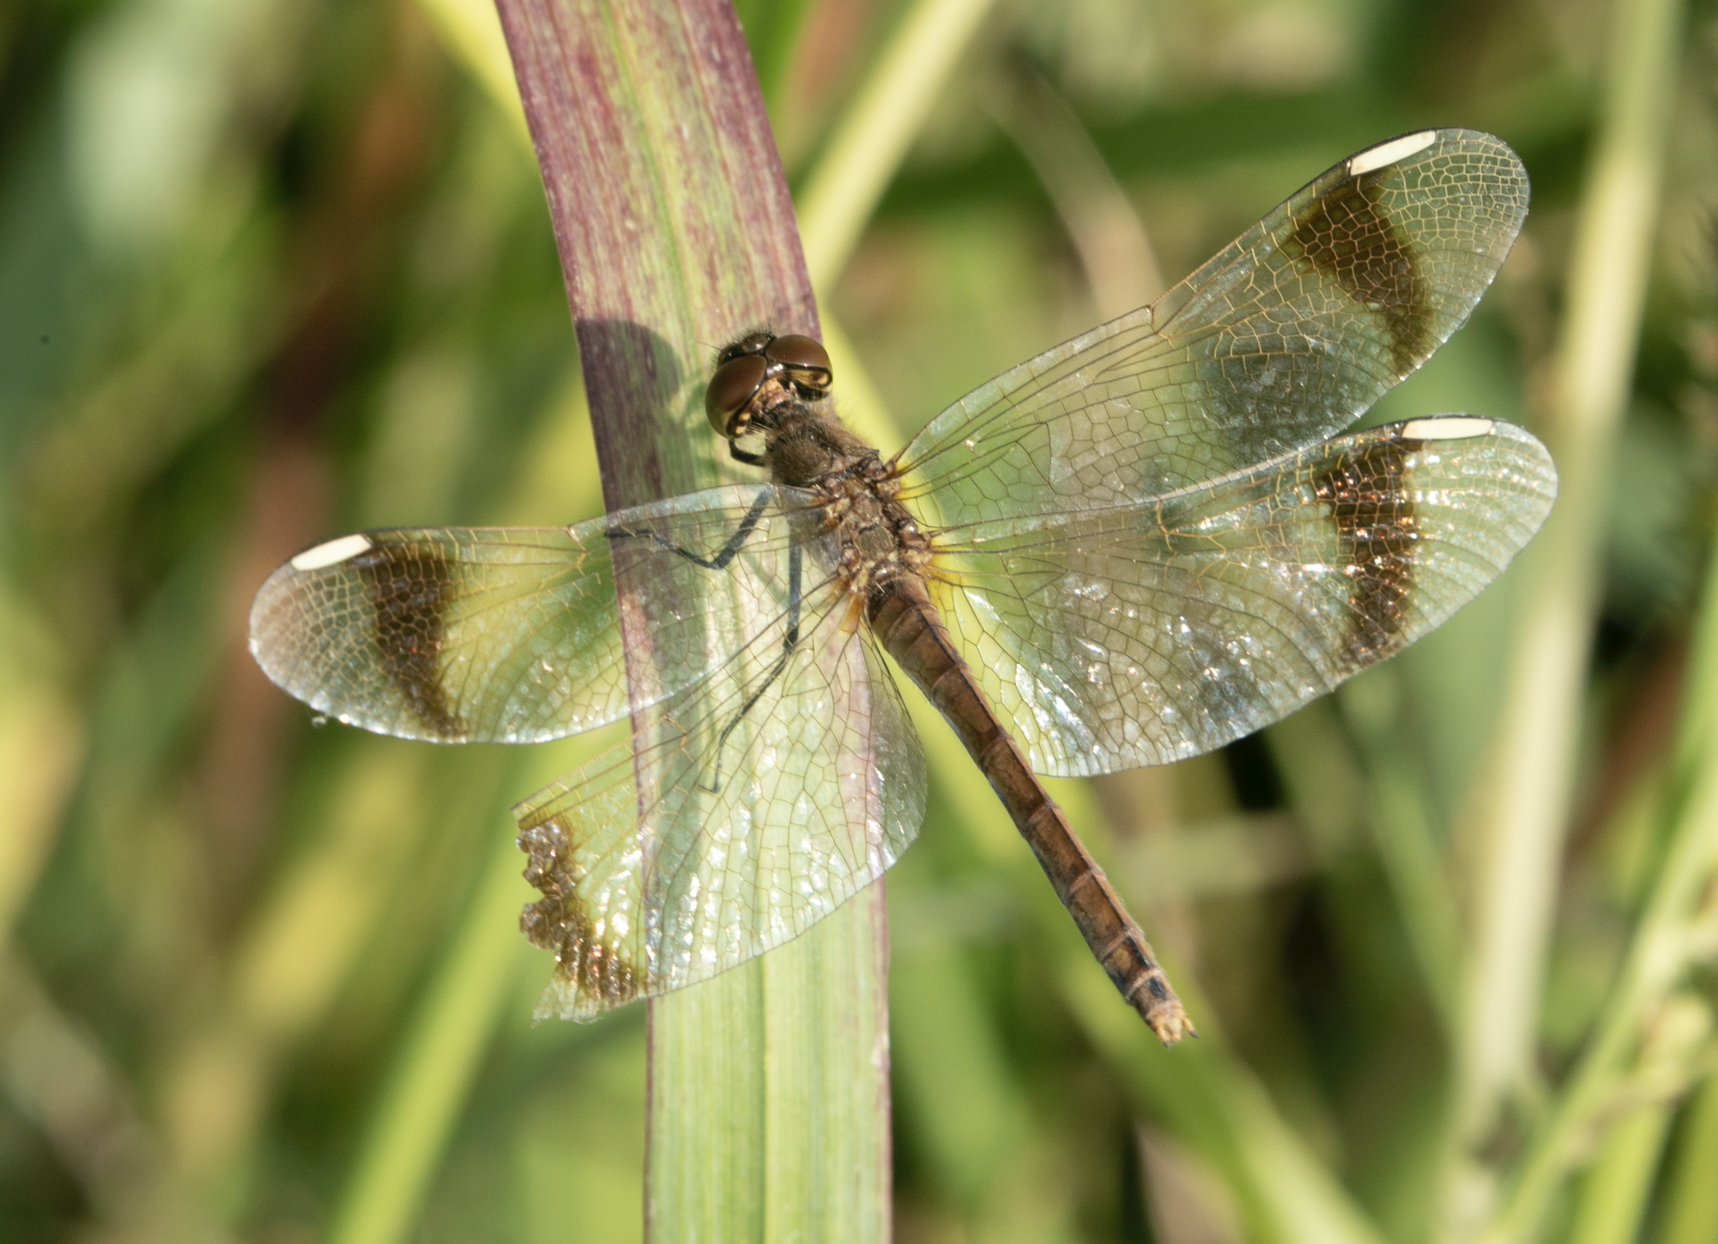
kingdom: Animalia
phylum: Arthropoda
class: Insecta
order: Odonata
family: Libellulidae
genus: Sympetrum
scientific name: Sympetrum pedemontanum
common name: Banded darter
